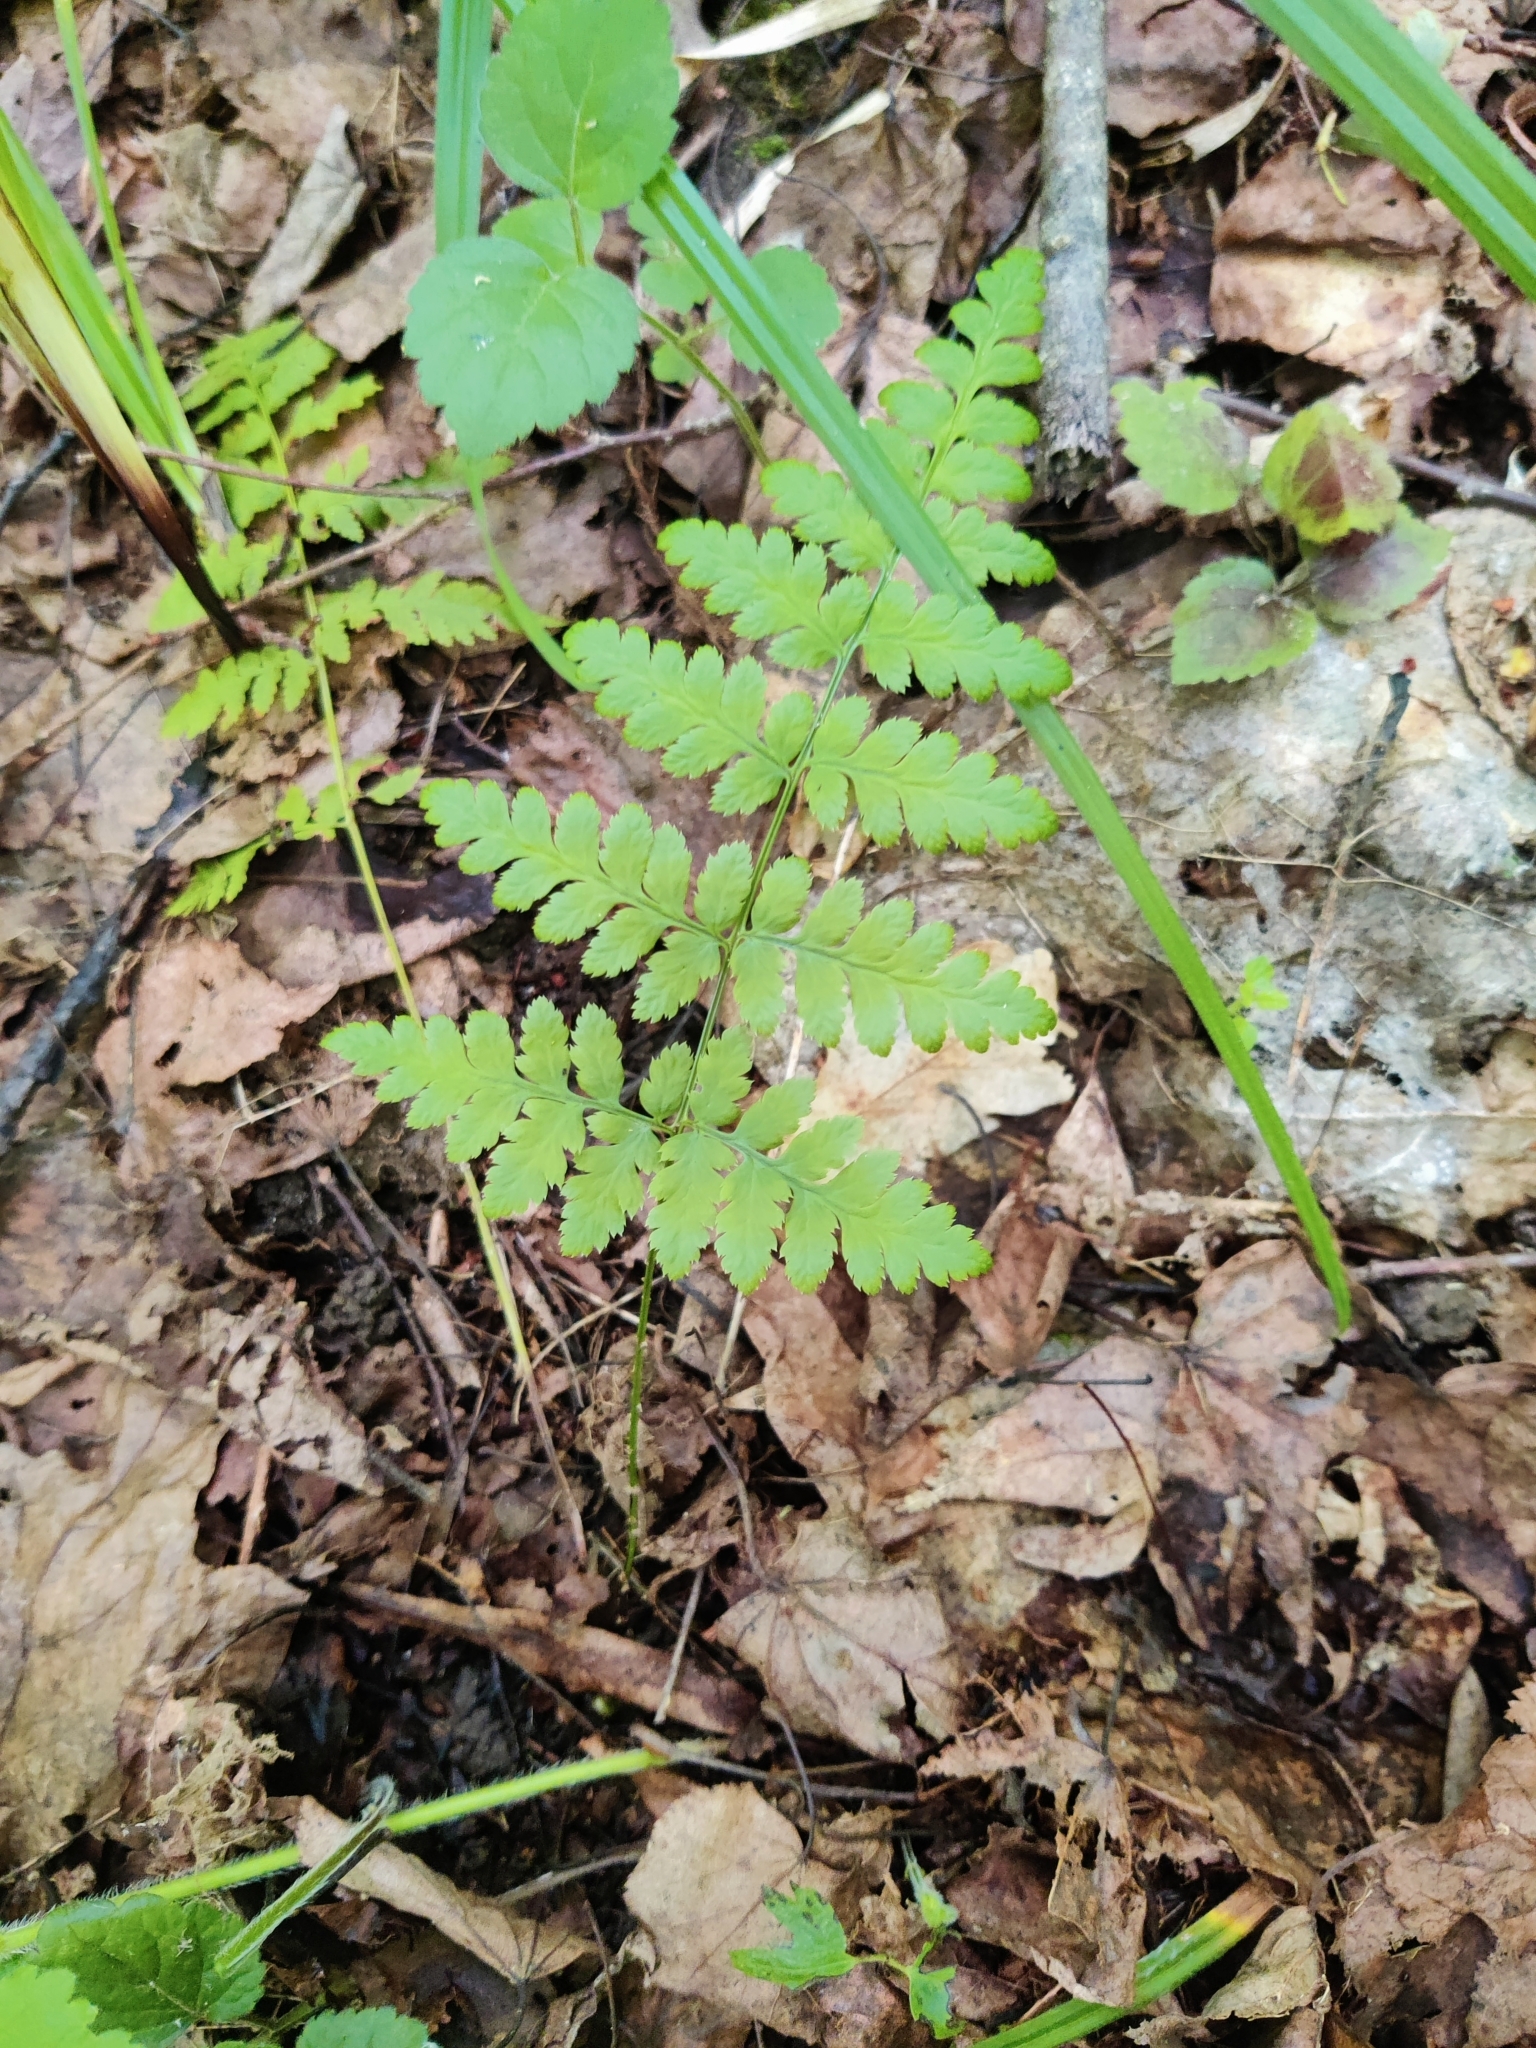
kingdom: Plantae
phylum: Tracheophyta
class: Polypodiopsida
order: Polypodiales
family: Dryopteridaceae
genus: Dryopteris
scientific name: Dryopteris carthusiana
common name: Narrow buckler-fern
